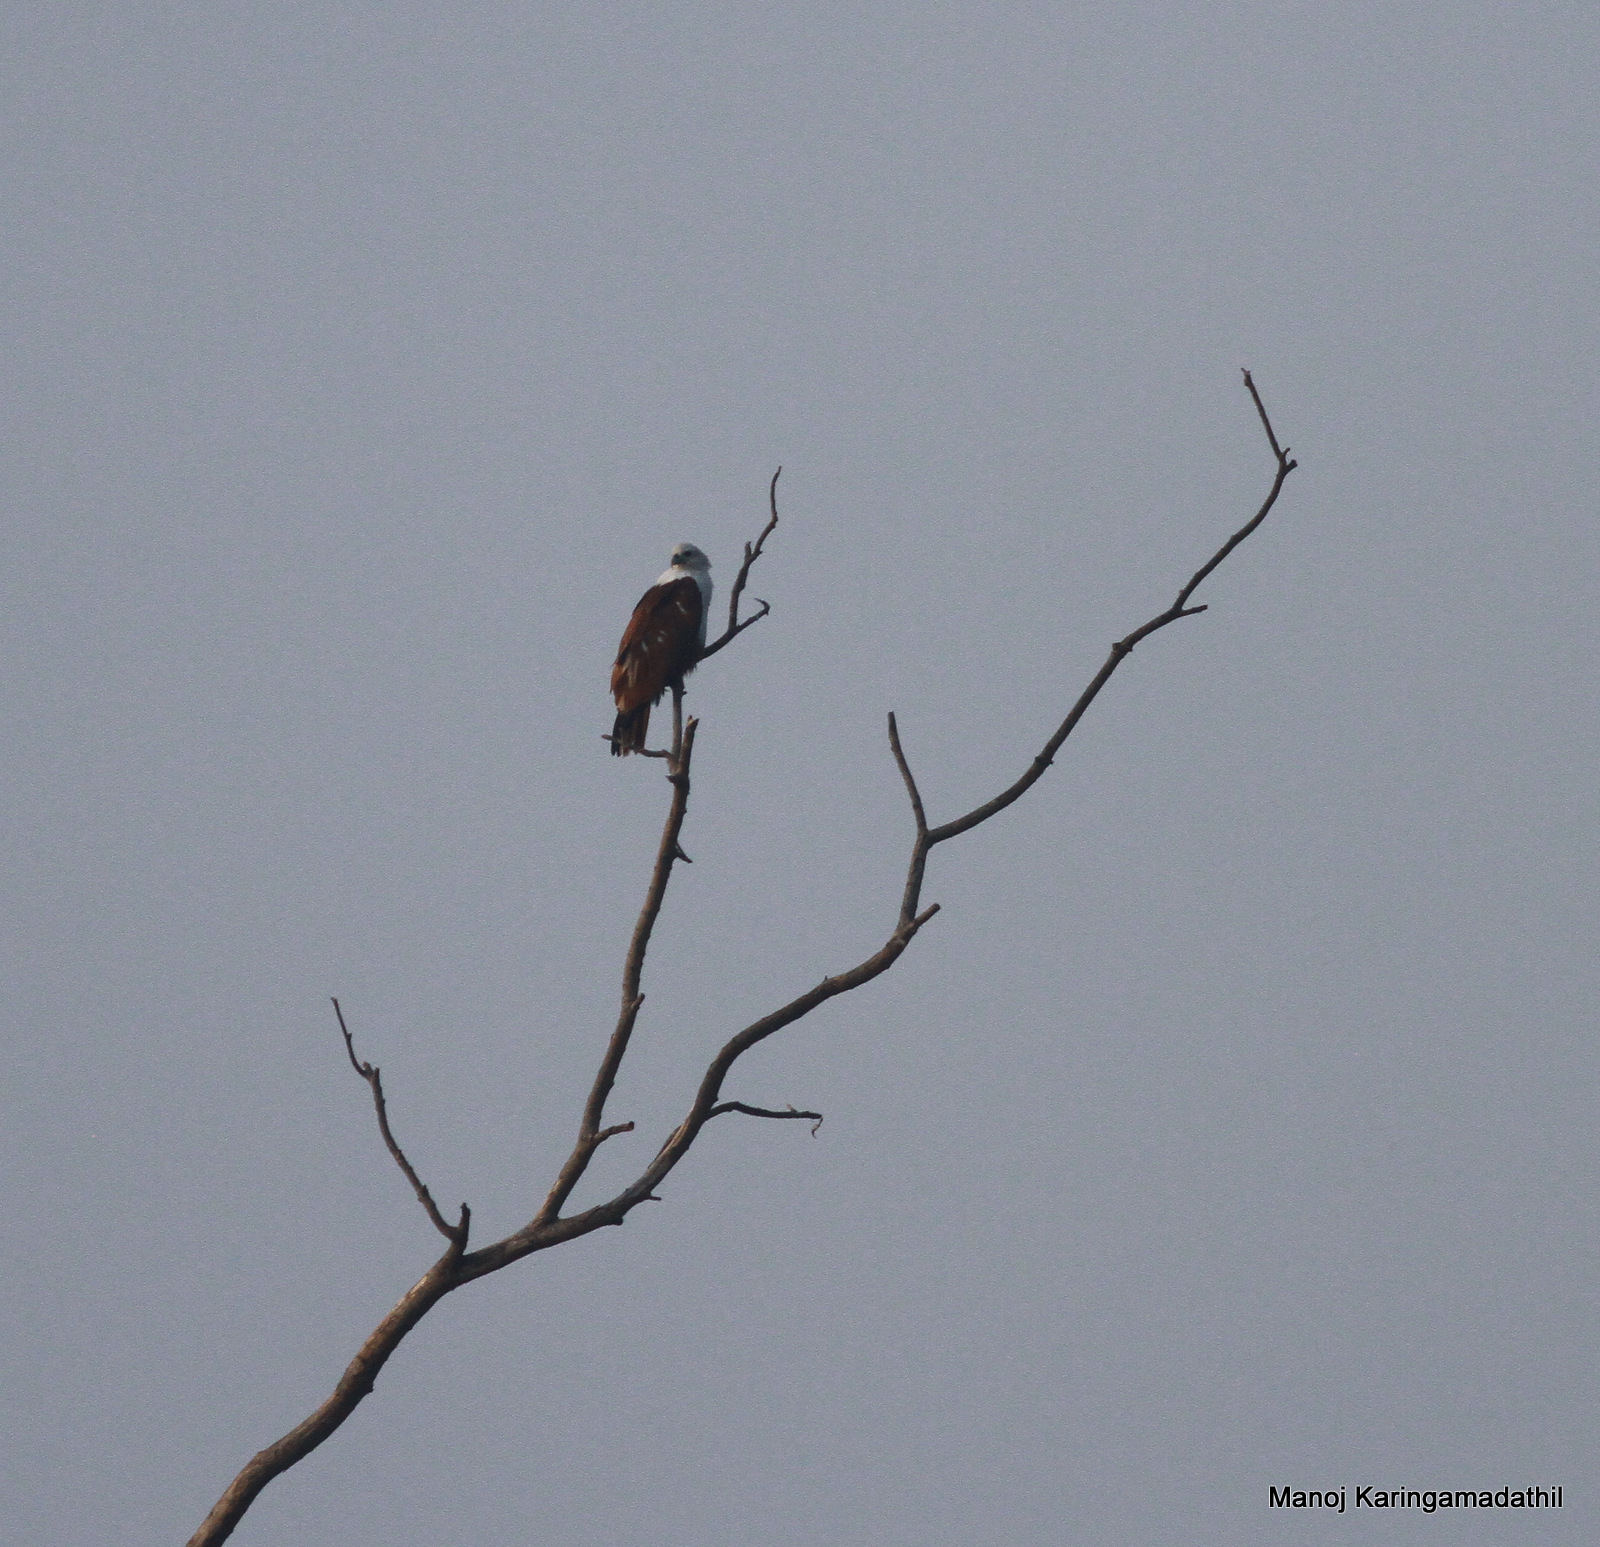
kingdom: Animalia
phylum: Chordata
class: Aves
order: Accipitriformes
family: Accipitridae
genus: Haliastur
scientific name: Haliastur indus
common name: Brahminy kite
